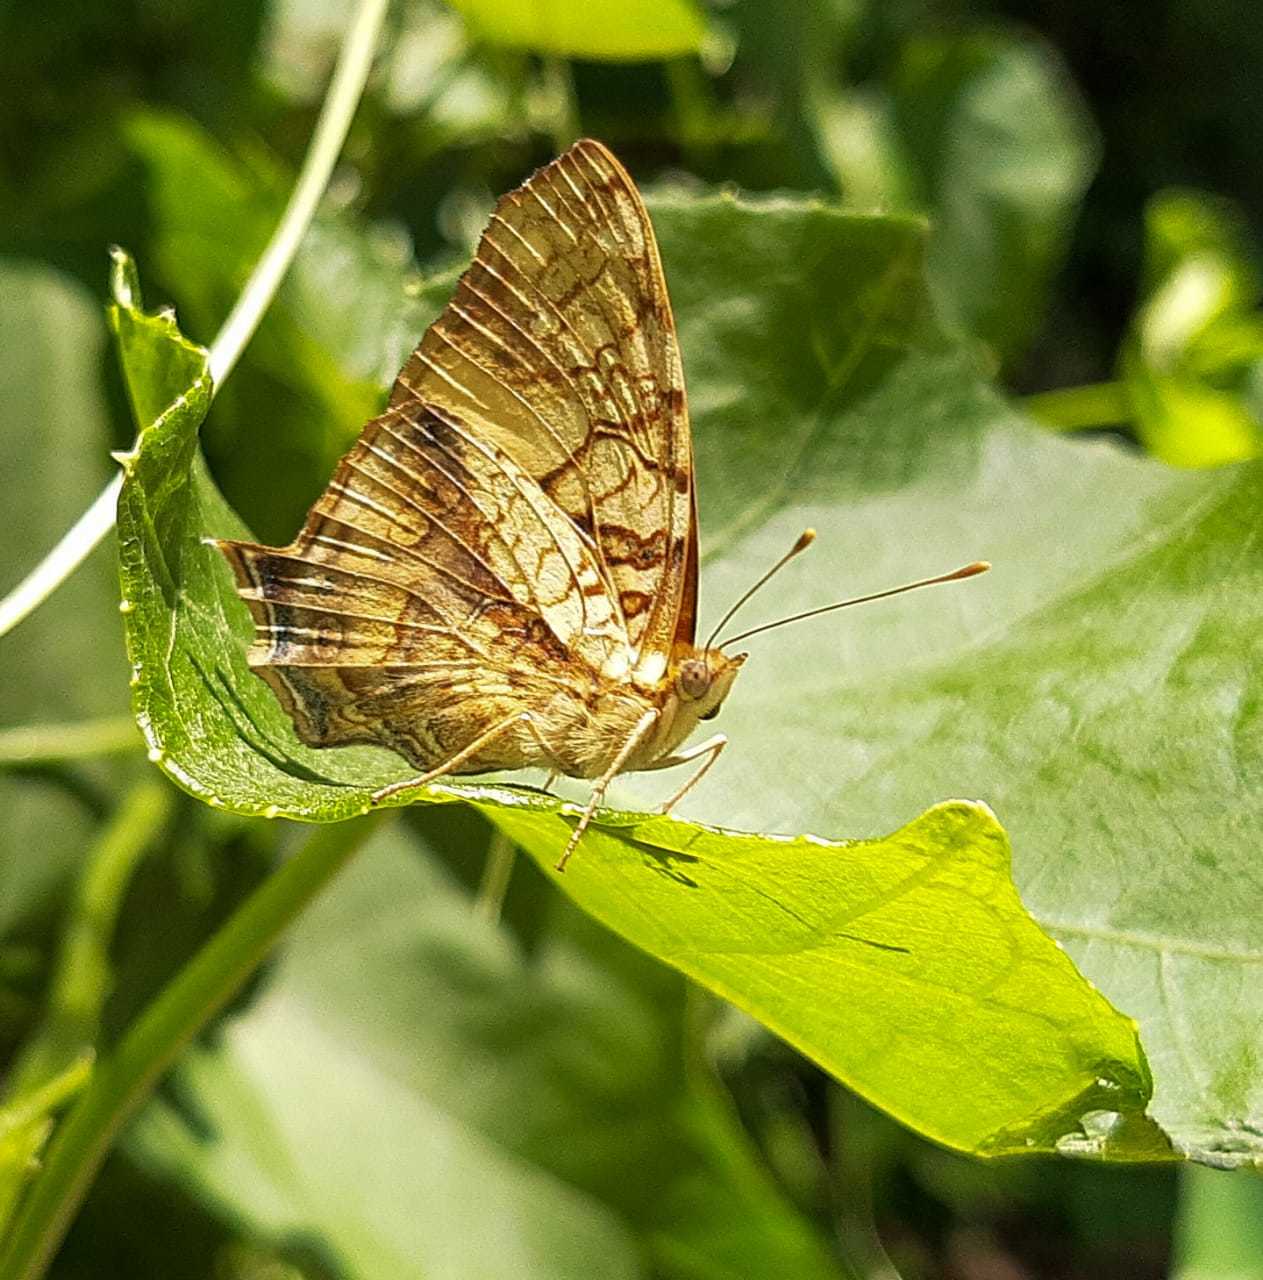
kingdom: Animalia
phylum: Arthropoda
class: Insecta
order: Lepidoptera
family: Nymphalidae
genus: Hypanartia
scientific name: Hypanartia lethe
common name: Orange mapwing
